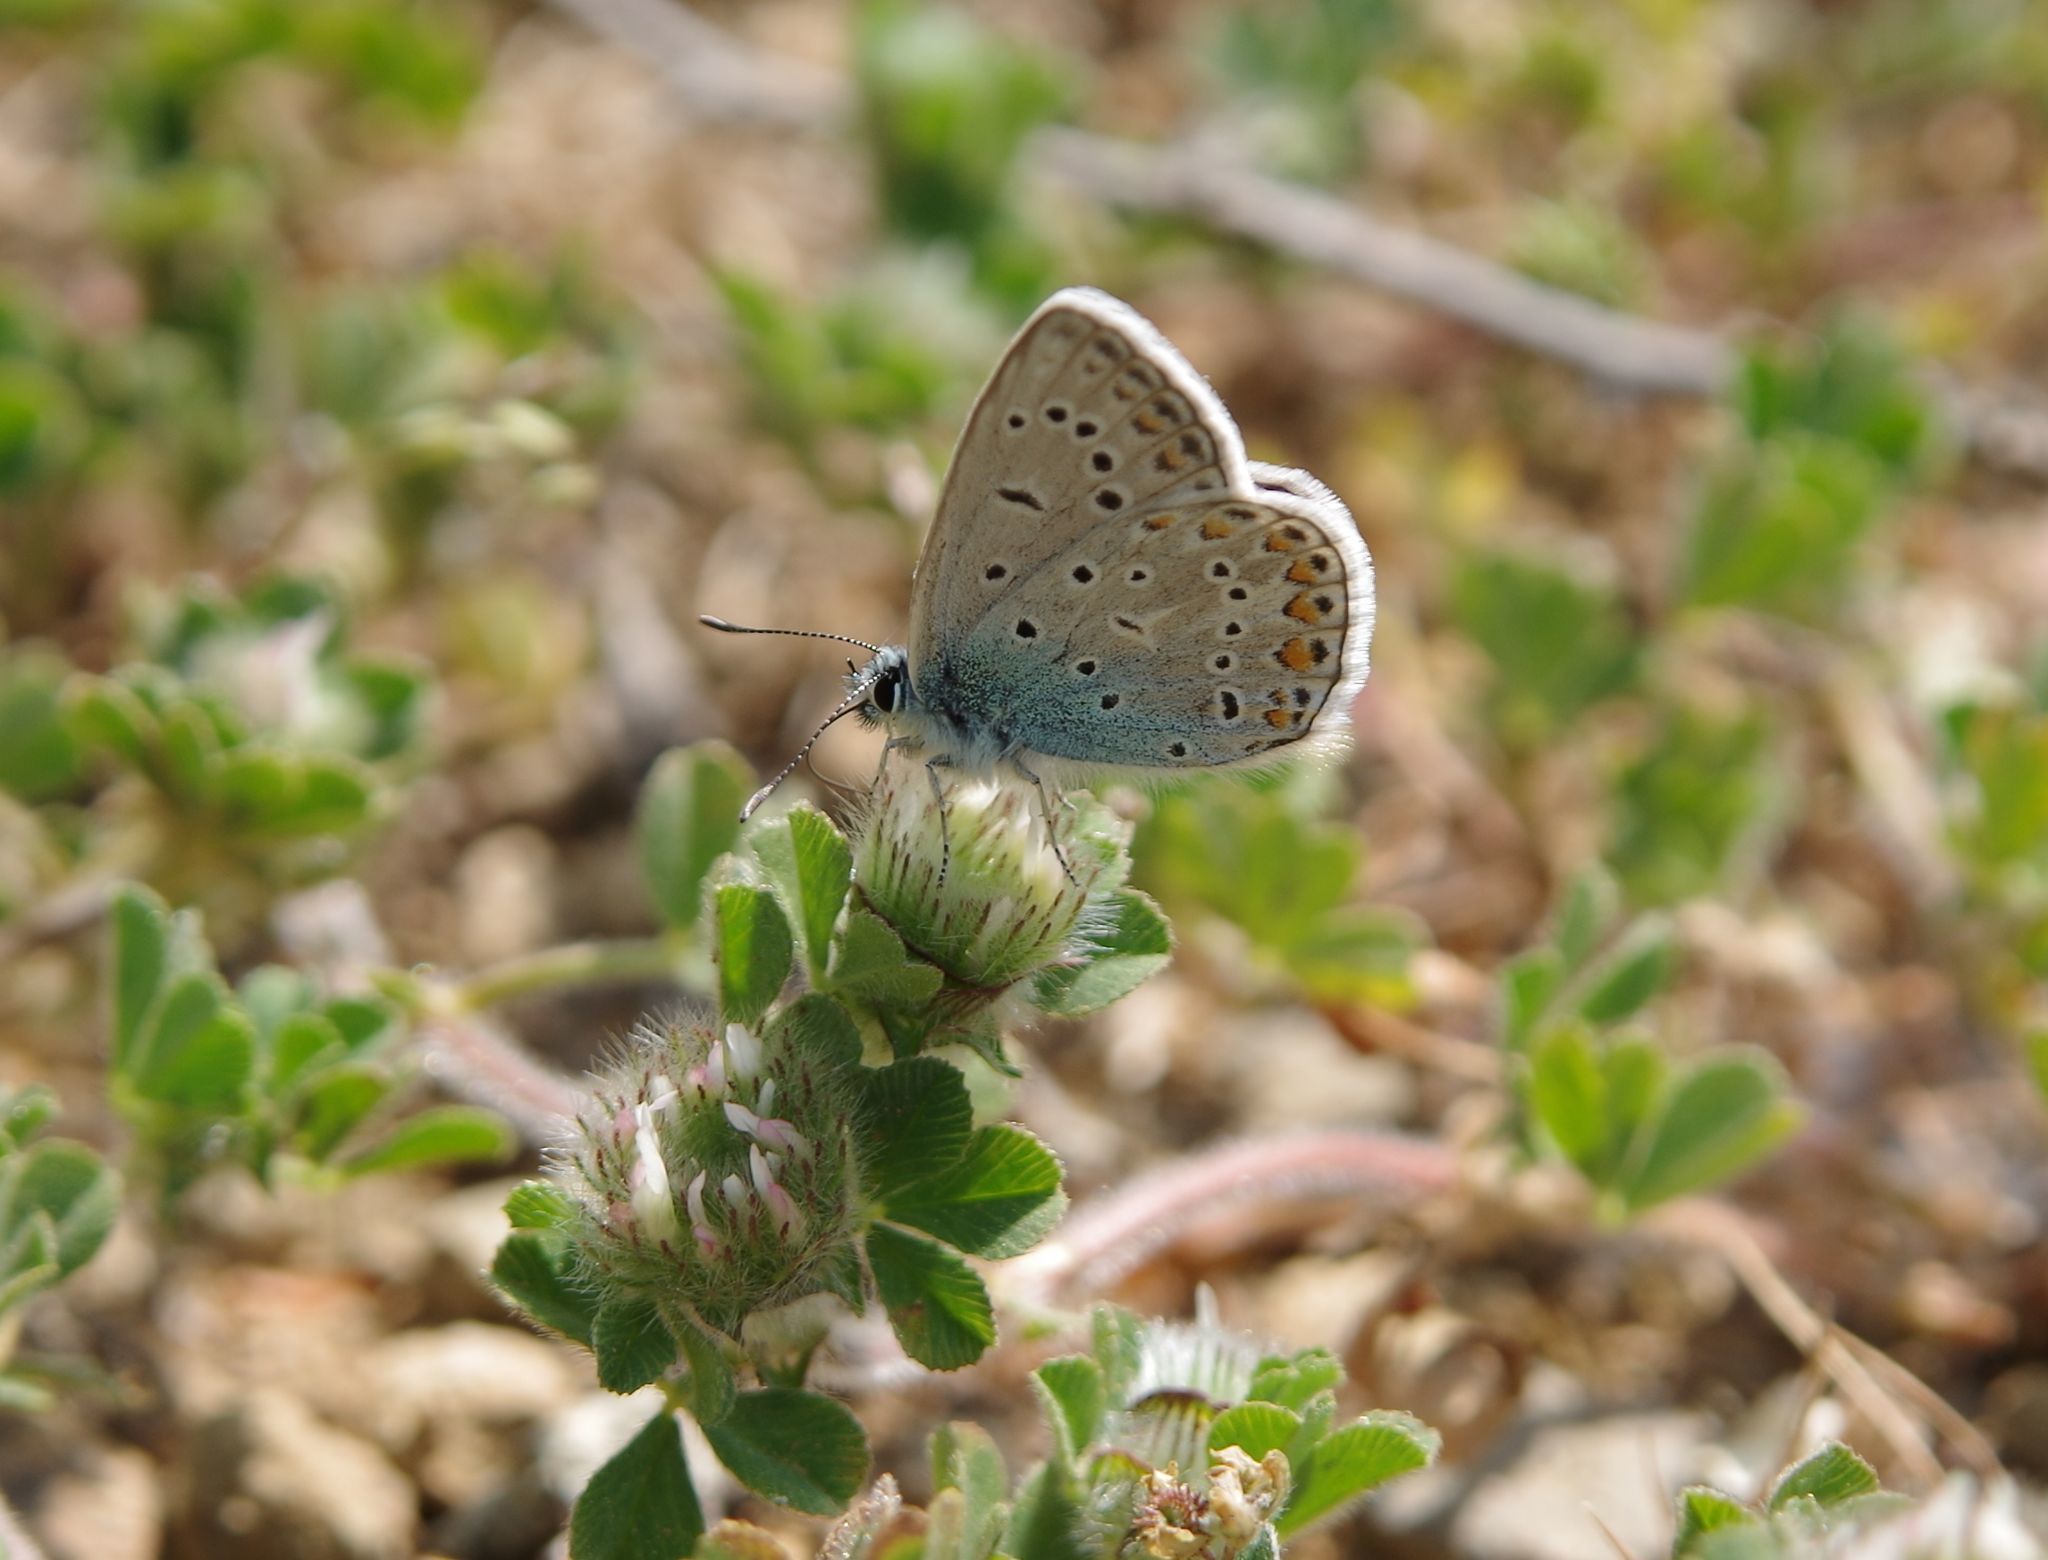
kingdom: Animalia
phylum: Arthropoda
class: Insecta
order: Lepidoptera
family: Lycaenidae
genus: Polyommatus
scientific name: Polyommatus icarus
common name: Common blue
